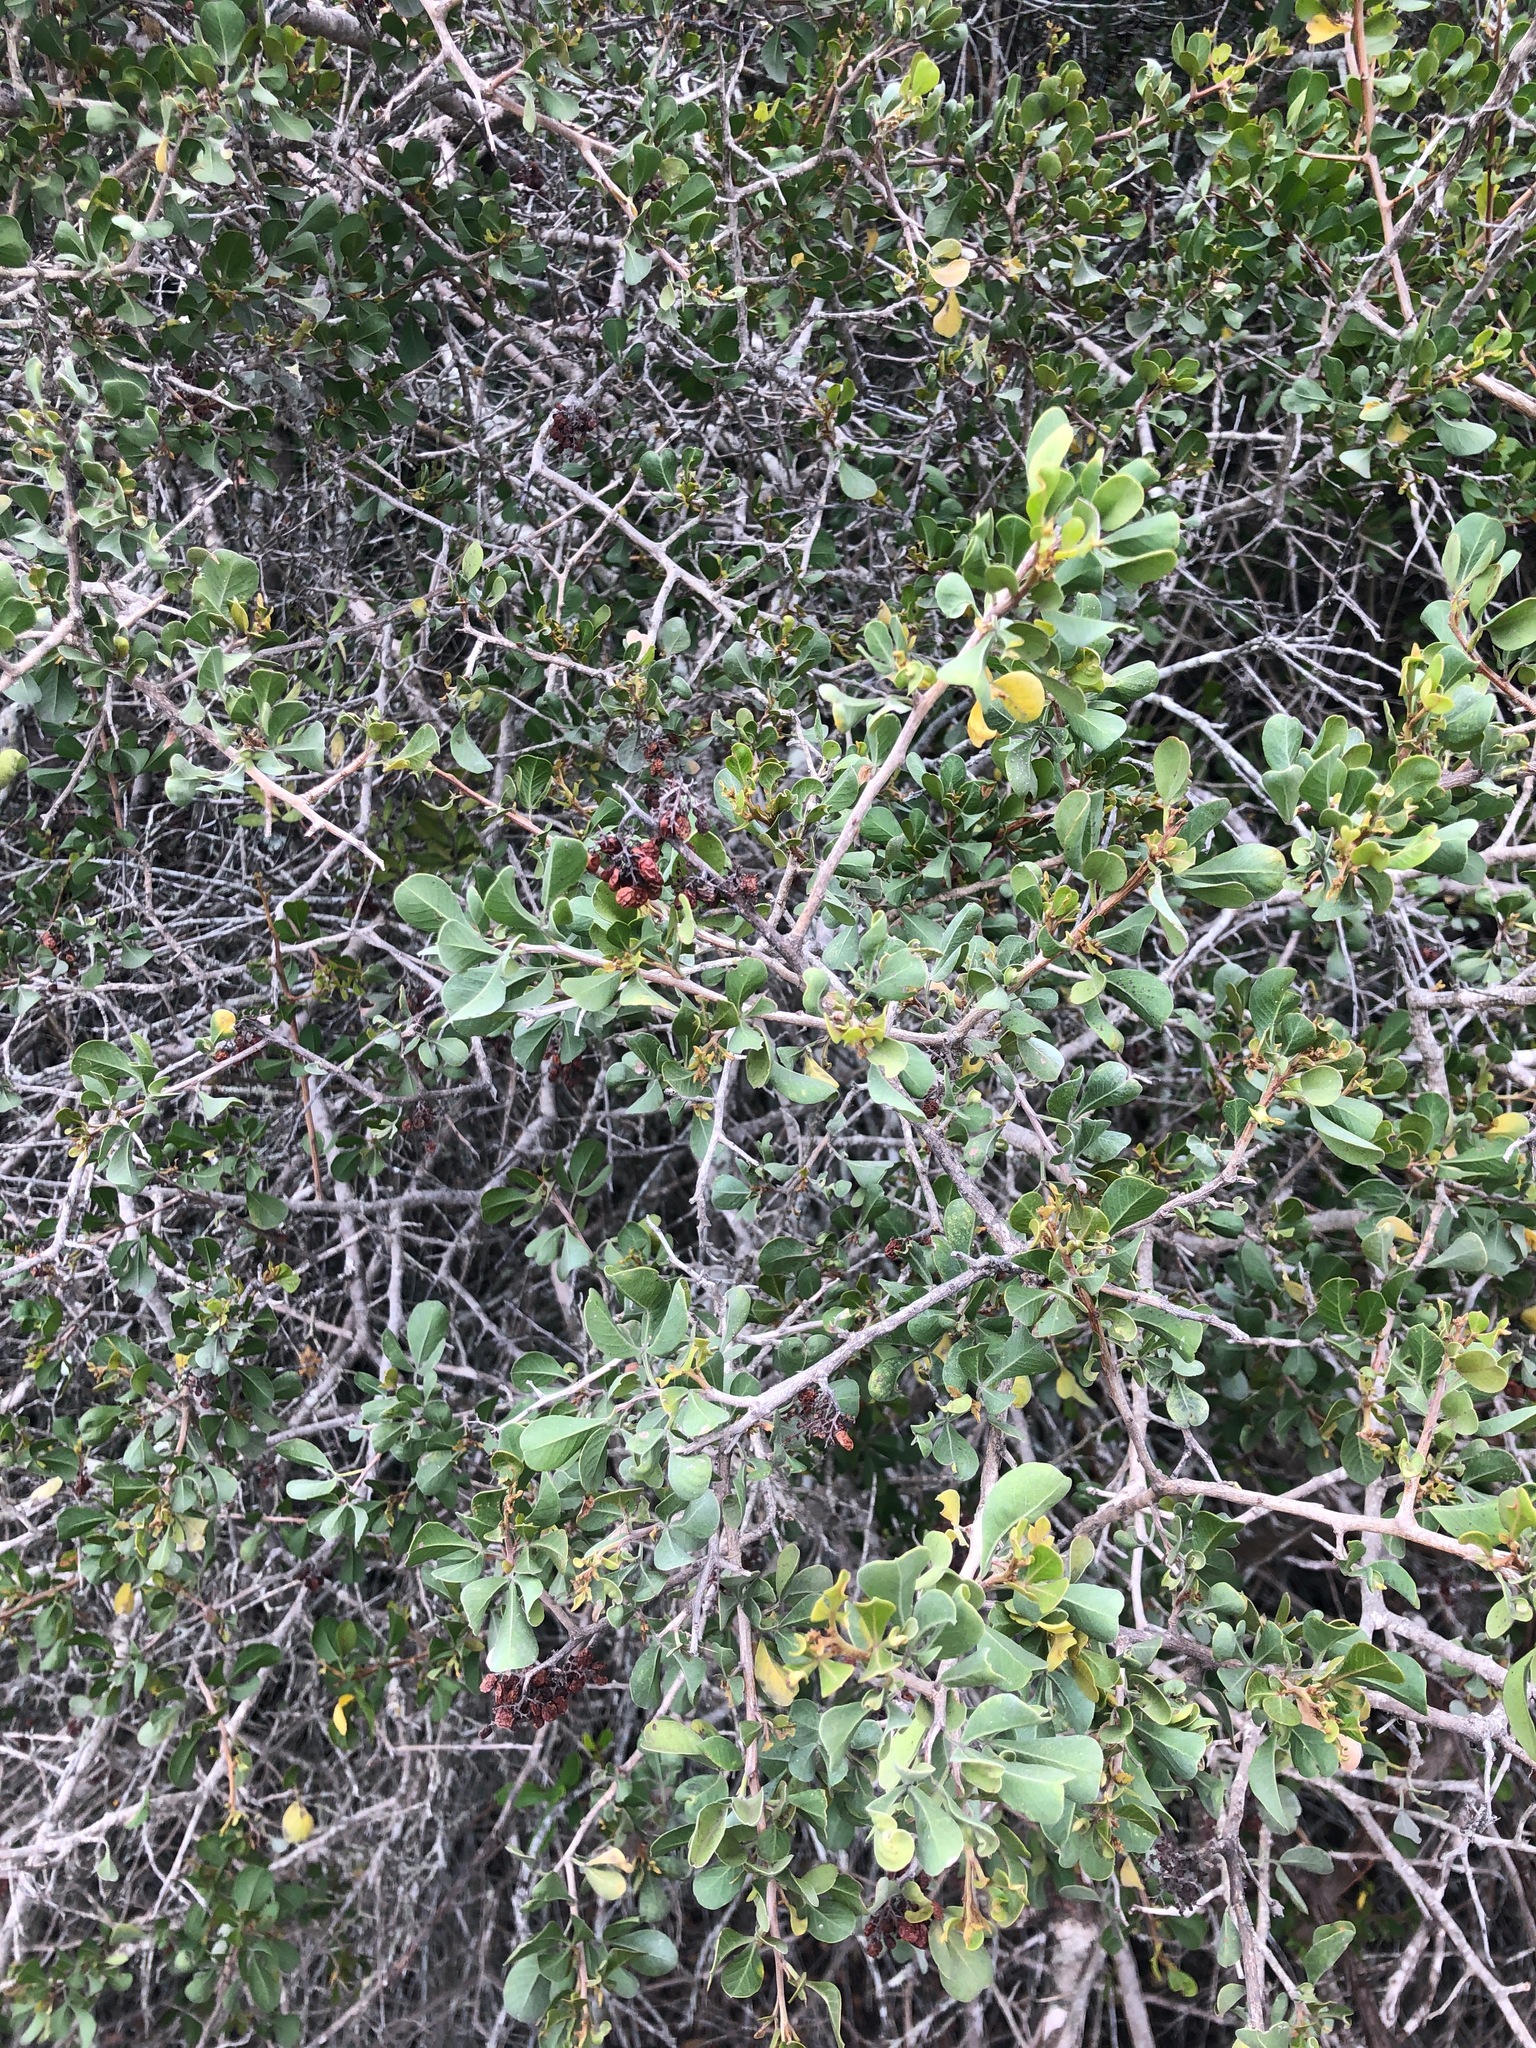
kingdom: Plantae
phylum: Tracheophyta
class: Magnoliopsida
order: Sapindales
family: Anacardiaceae
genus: Searsia
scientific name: Searsia glauca
